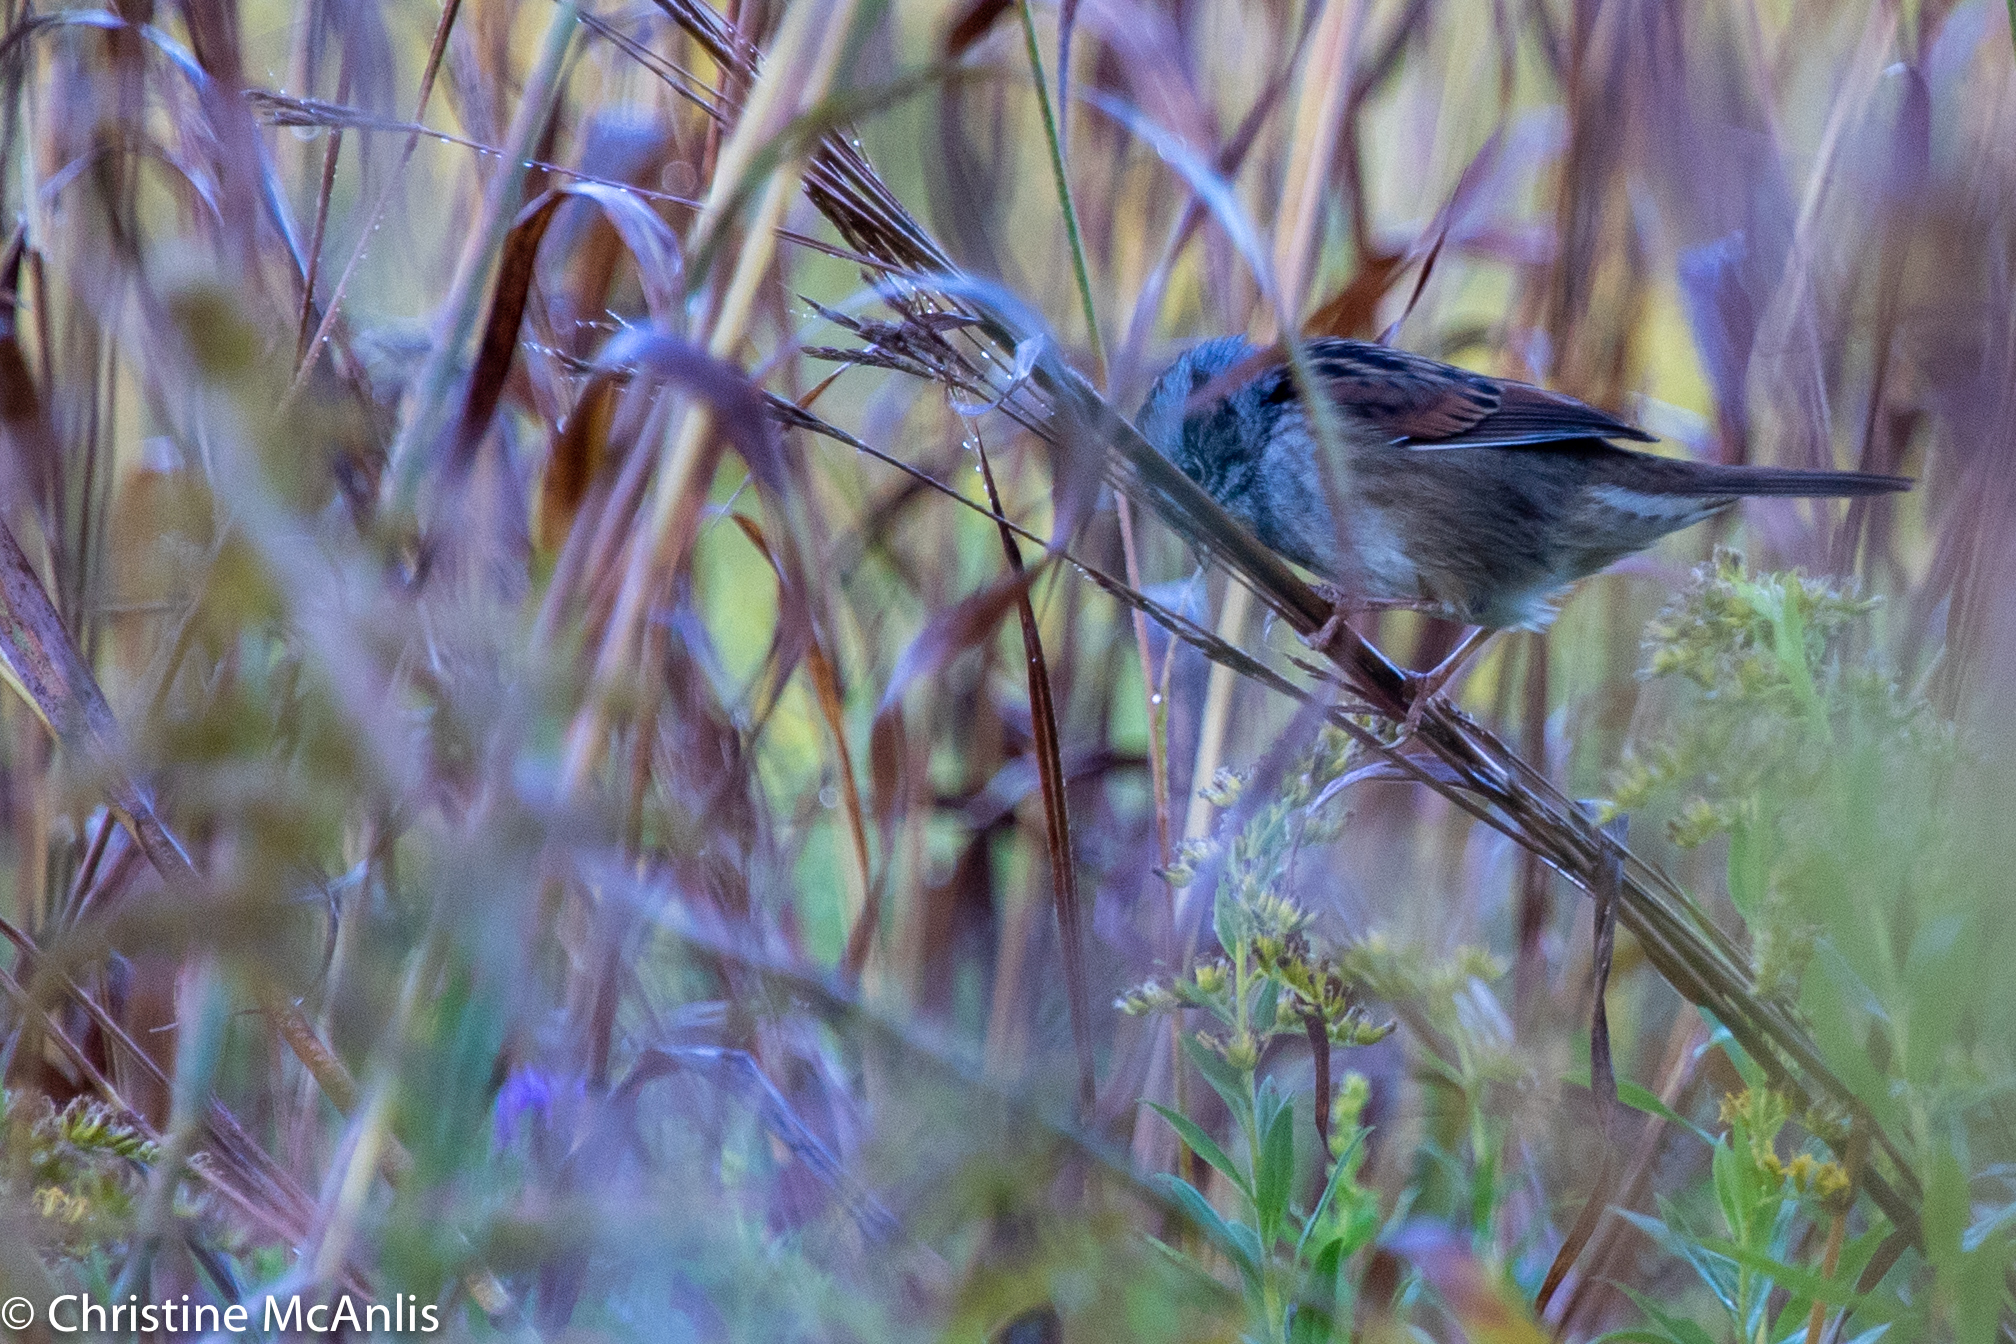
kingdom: Animalia
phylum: Chordata
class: Aves
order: Passeriformes
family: Passerellidae
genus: Melospiza
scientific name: Melospiza georgiana
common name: Swamp sparrow
